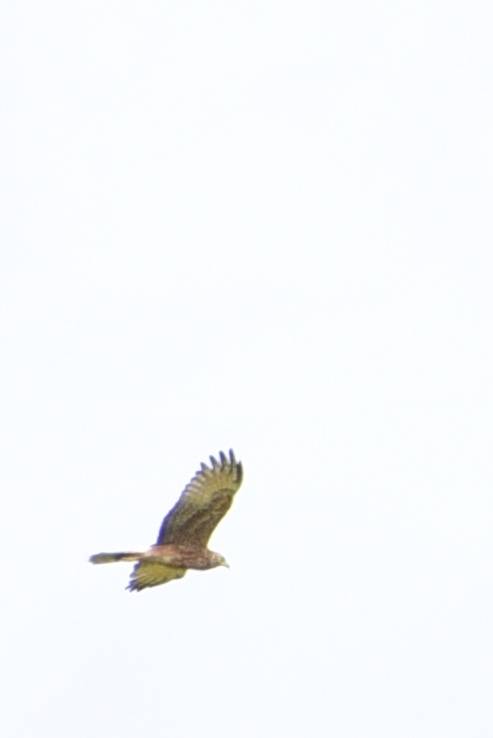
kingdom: Animalia
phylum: Chordata
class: Aves
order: Accipitriformes
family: Accipitridae
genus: Circus
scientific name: Circus approximans
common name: Swamp harrier
